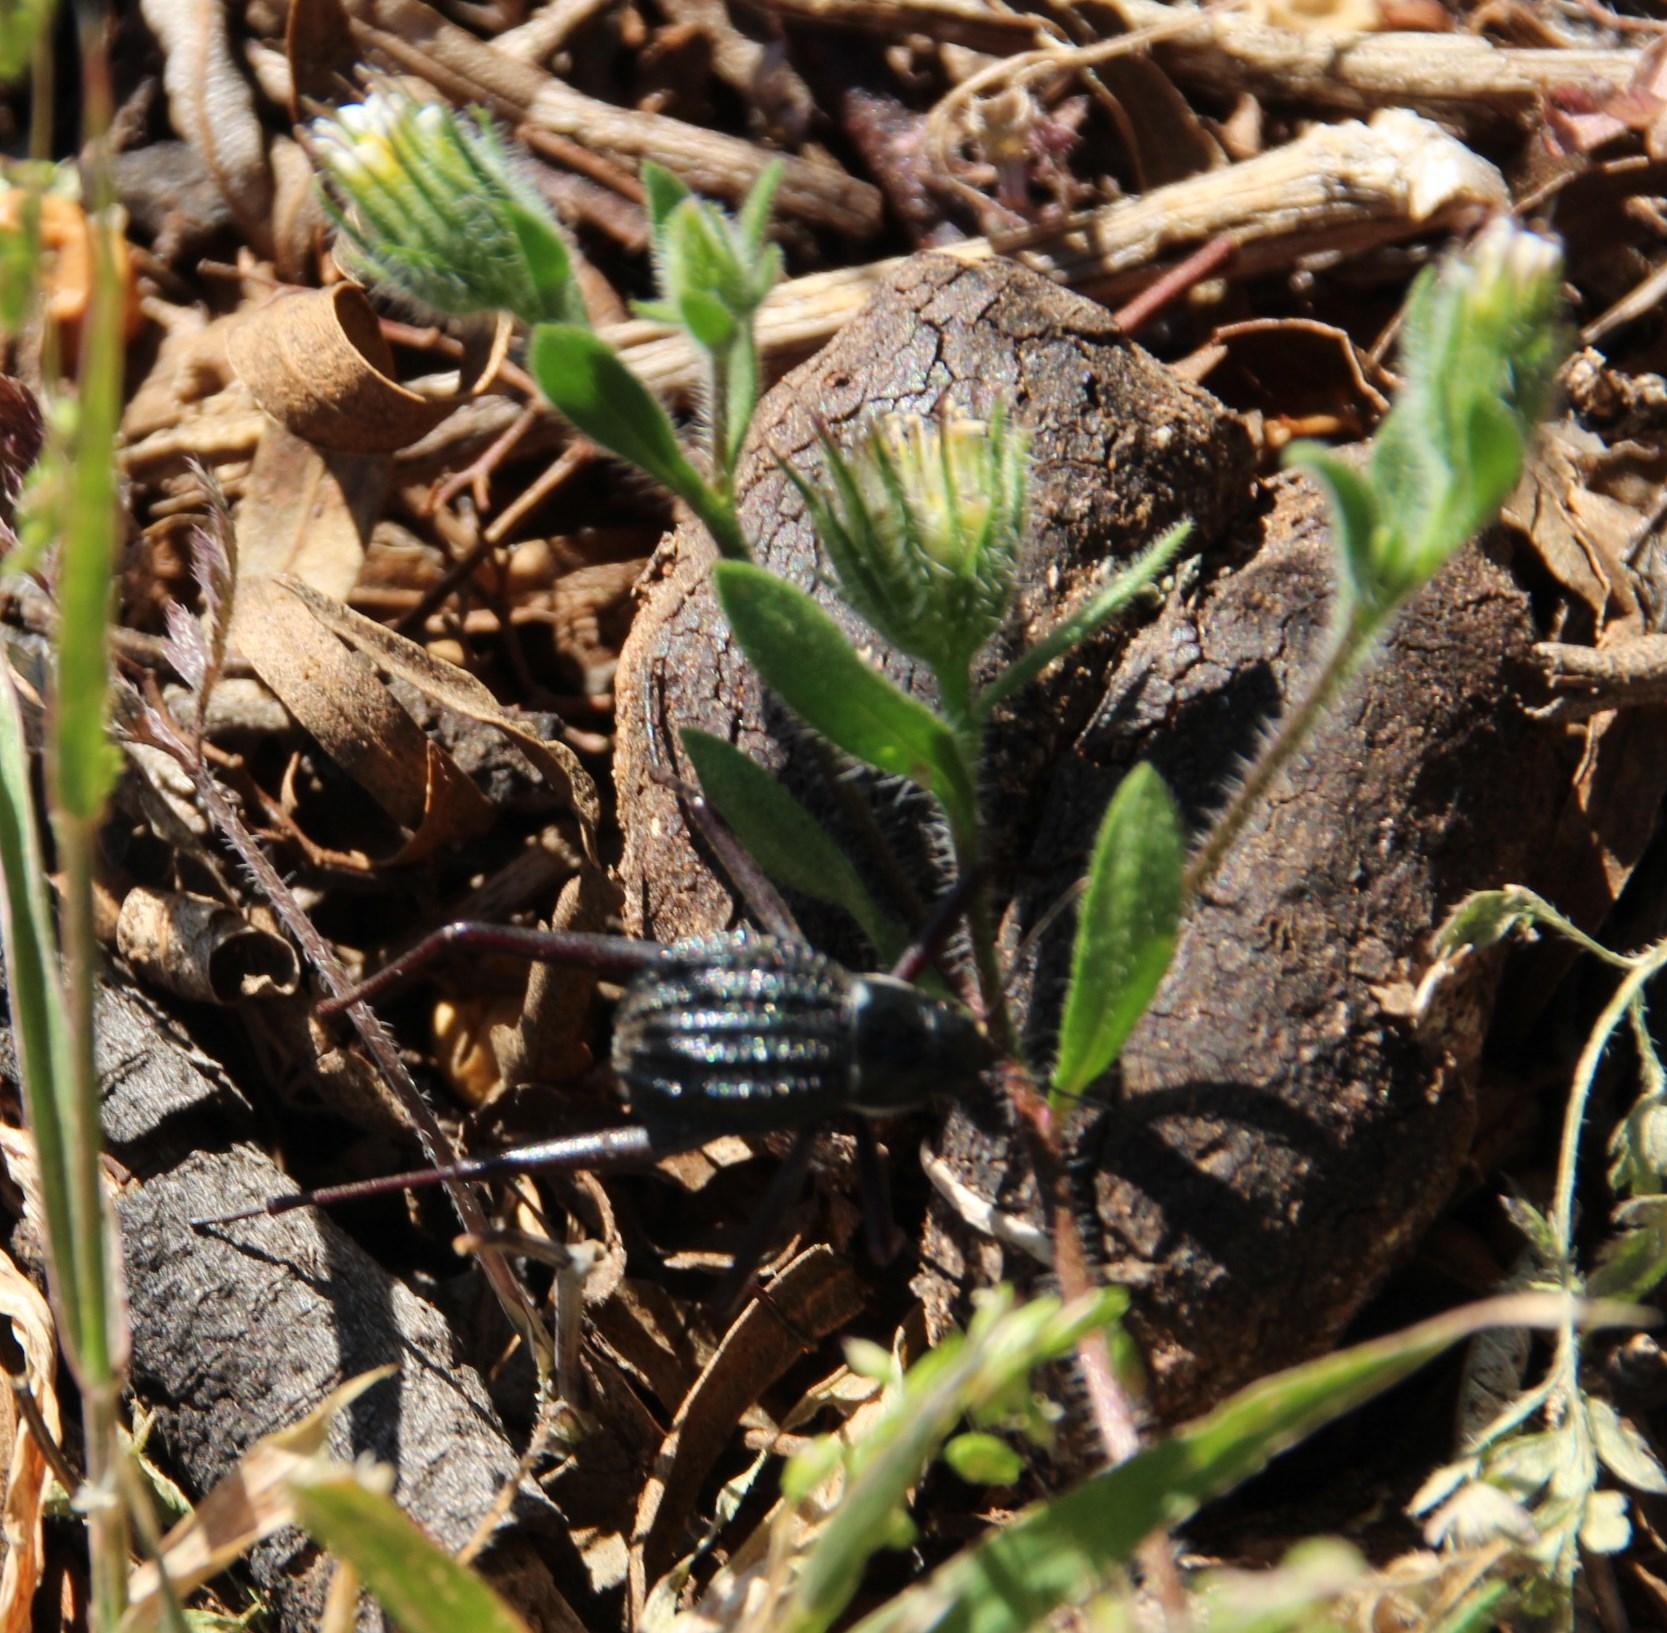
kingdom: Plantae
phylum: Tracheophyta
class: Magnoliopsida
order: Asterales
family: Asteraceae
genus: Amellus
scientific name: Amellus microglossus
